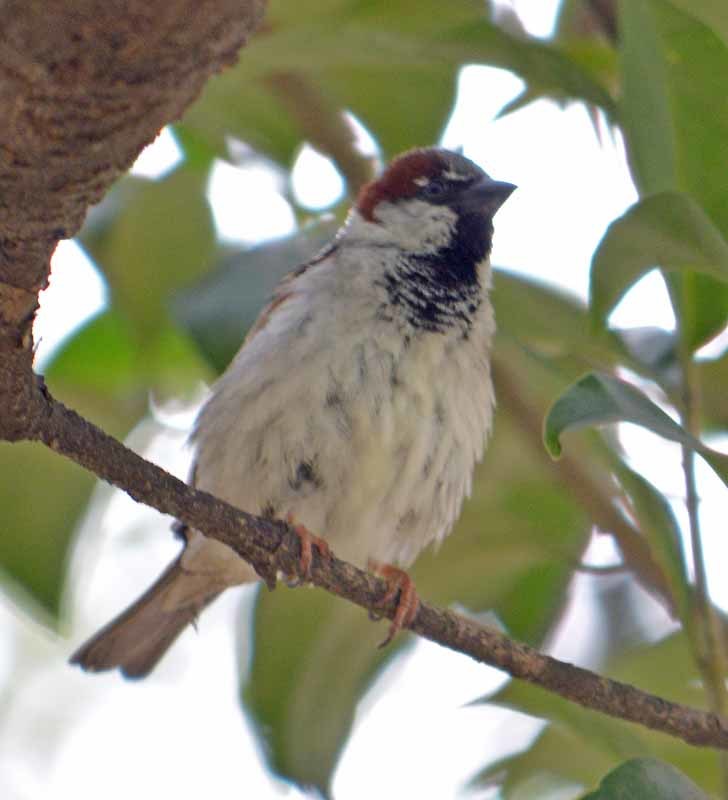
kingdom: Animalia
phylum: Chordata
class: Aves
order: Passeriformes
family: Passeridae
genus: Passer
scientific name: Passer domesticus
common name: House sparrow
